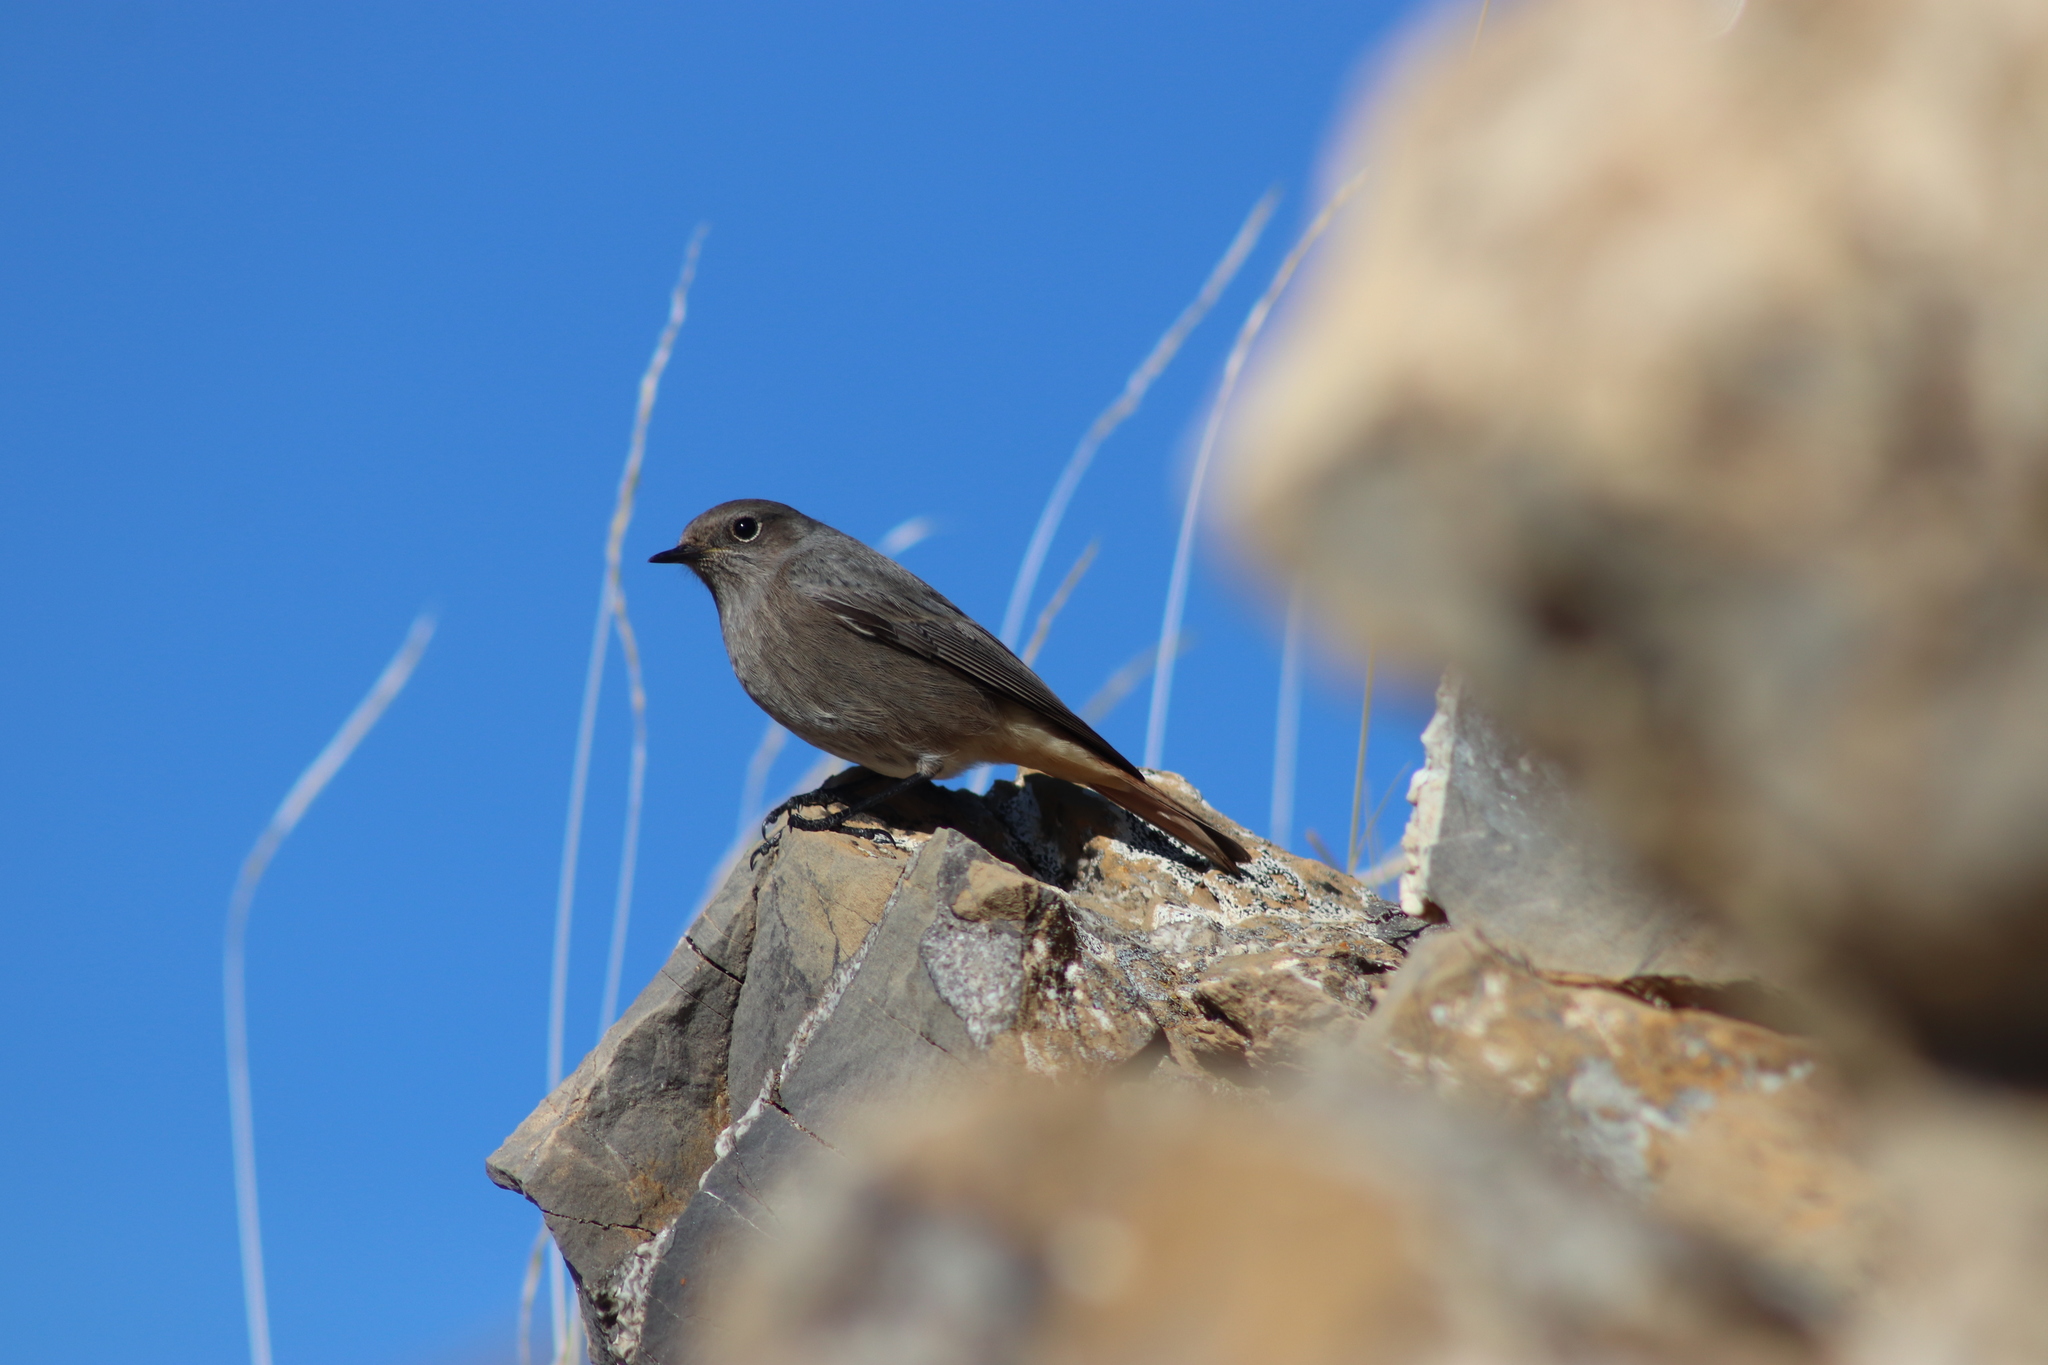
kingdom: Animalia
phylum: Chordata
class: Aves
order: Passeriformes
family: Muscicapidae
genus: Phoenicurus
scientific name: Phoenicurus ochruros
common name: Black redstart
